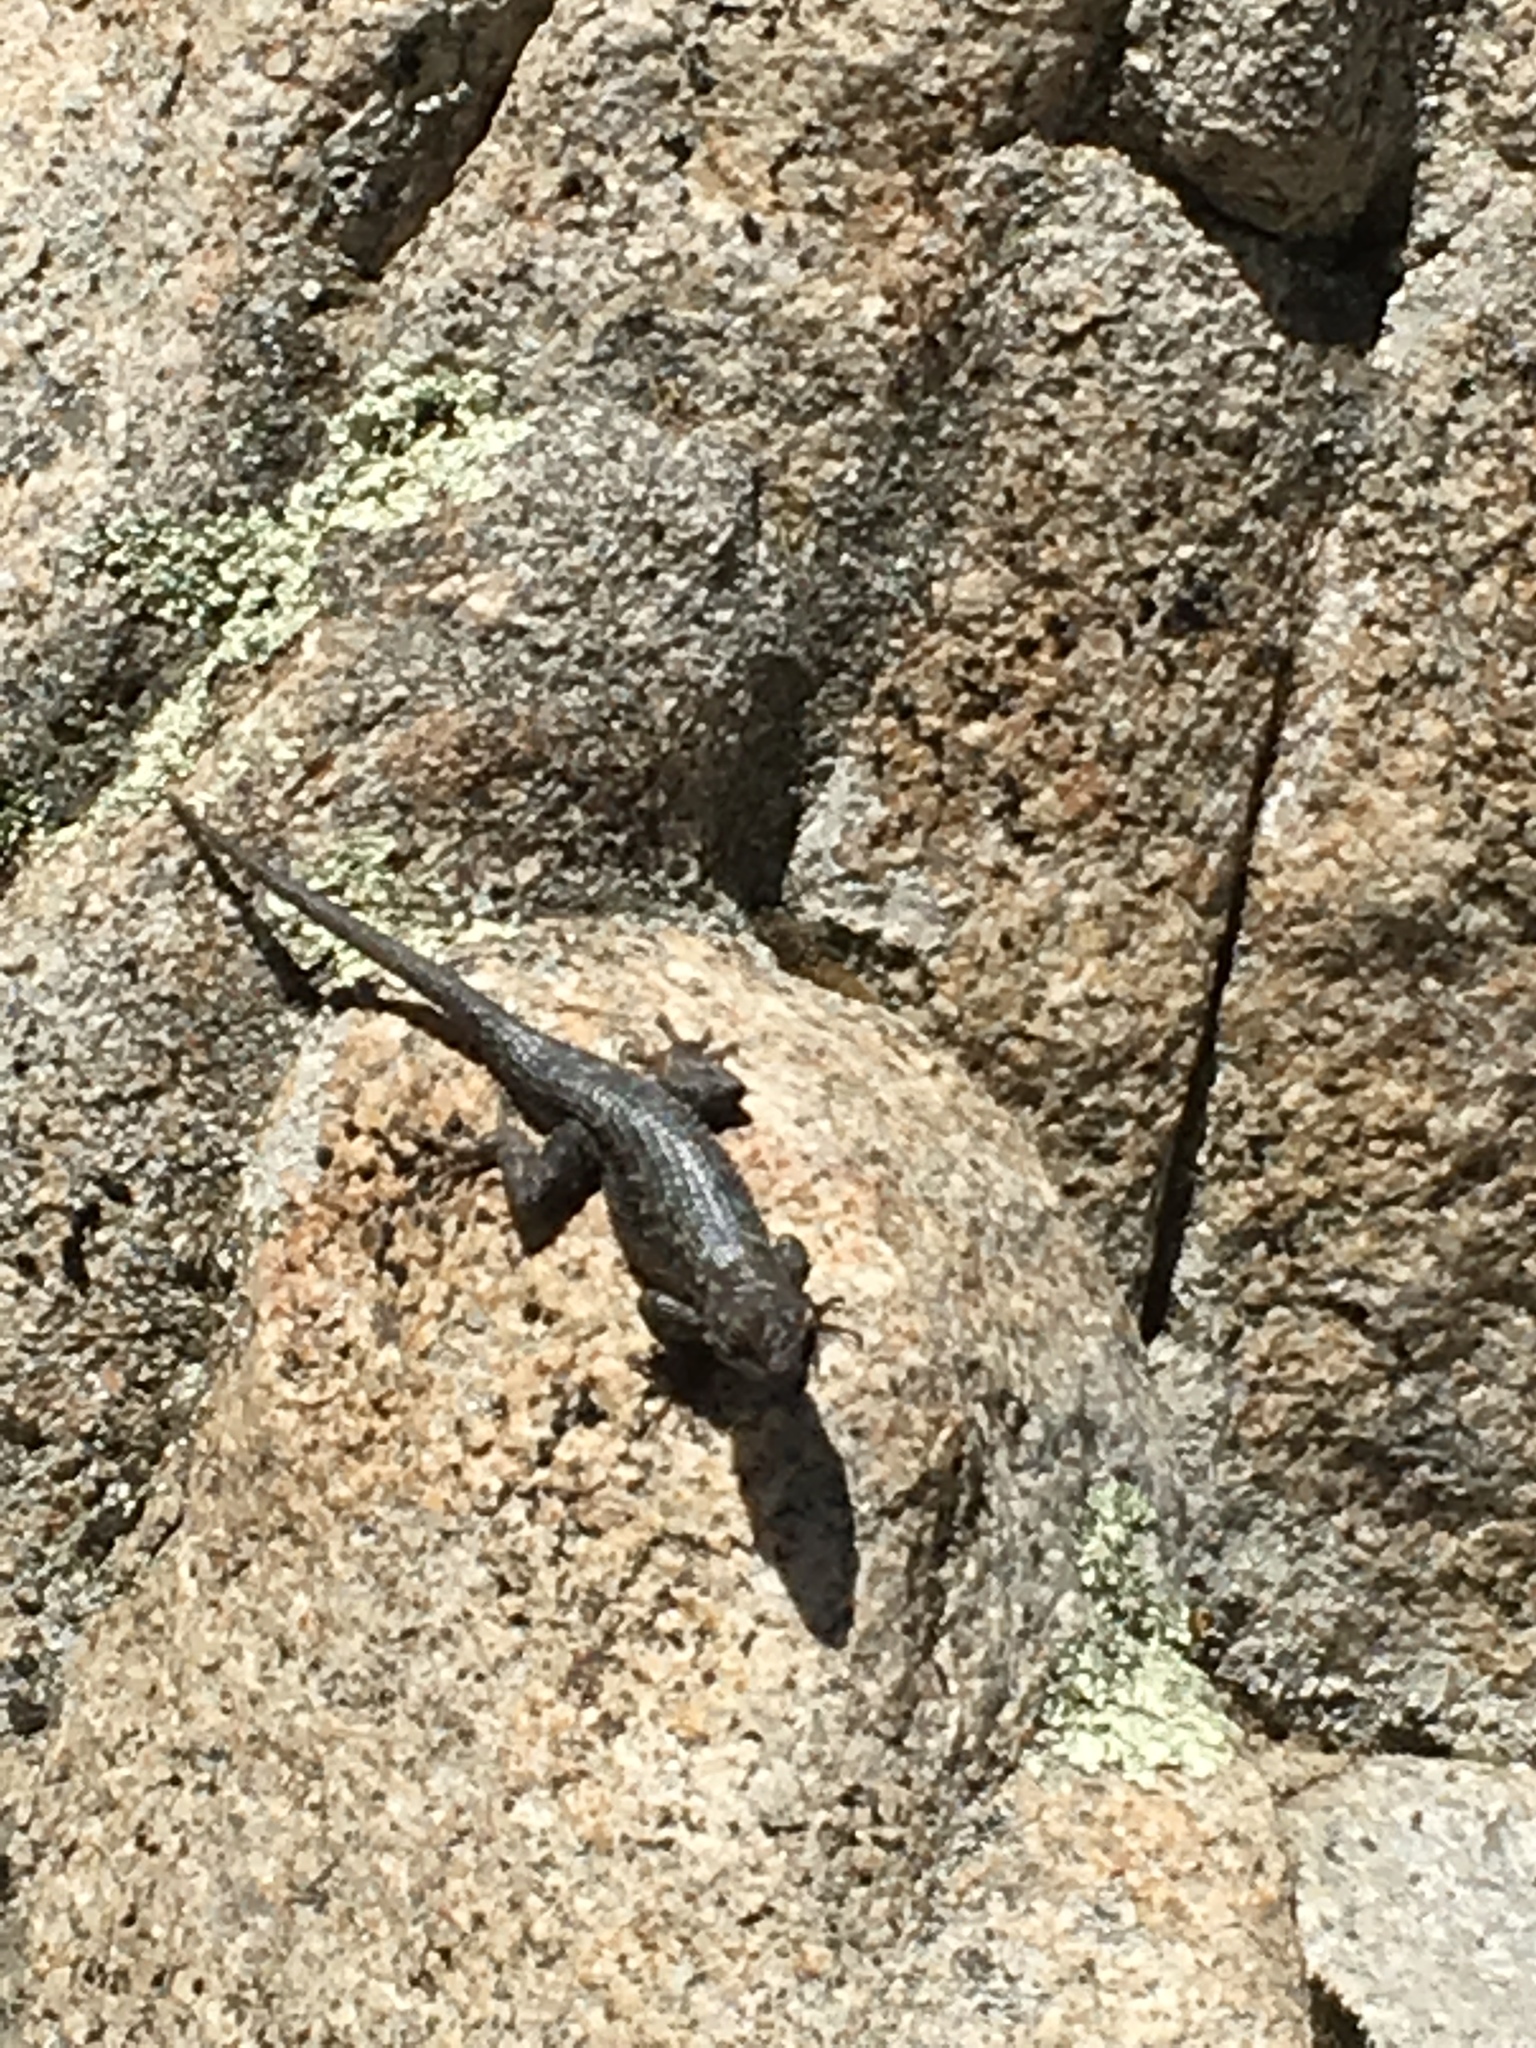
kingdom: Animalia
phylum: Chordata
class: Squamata
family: Phrynosomatidae
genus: Sceloporus
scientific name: Sceloporus occidentalis
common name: Western fence lizard
